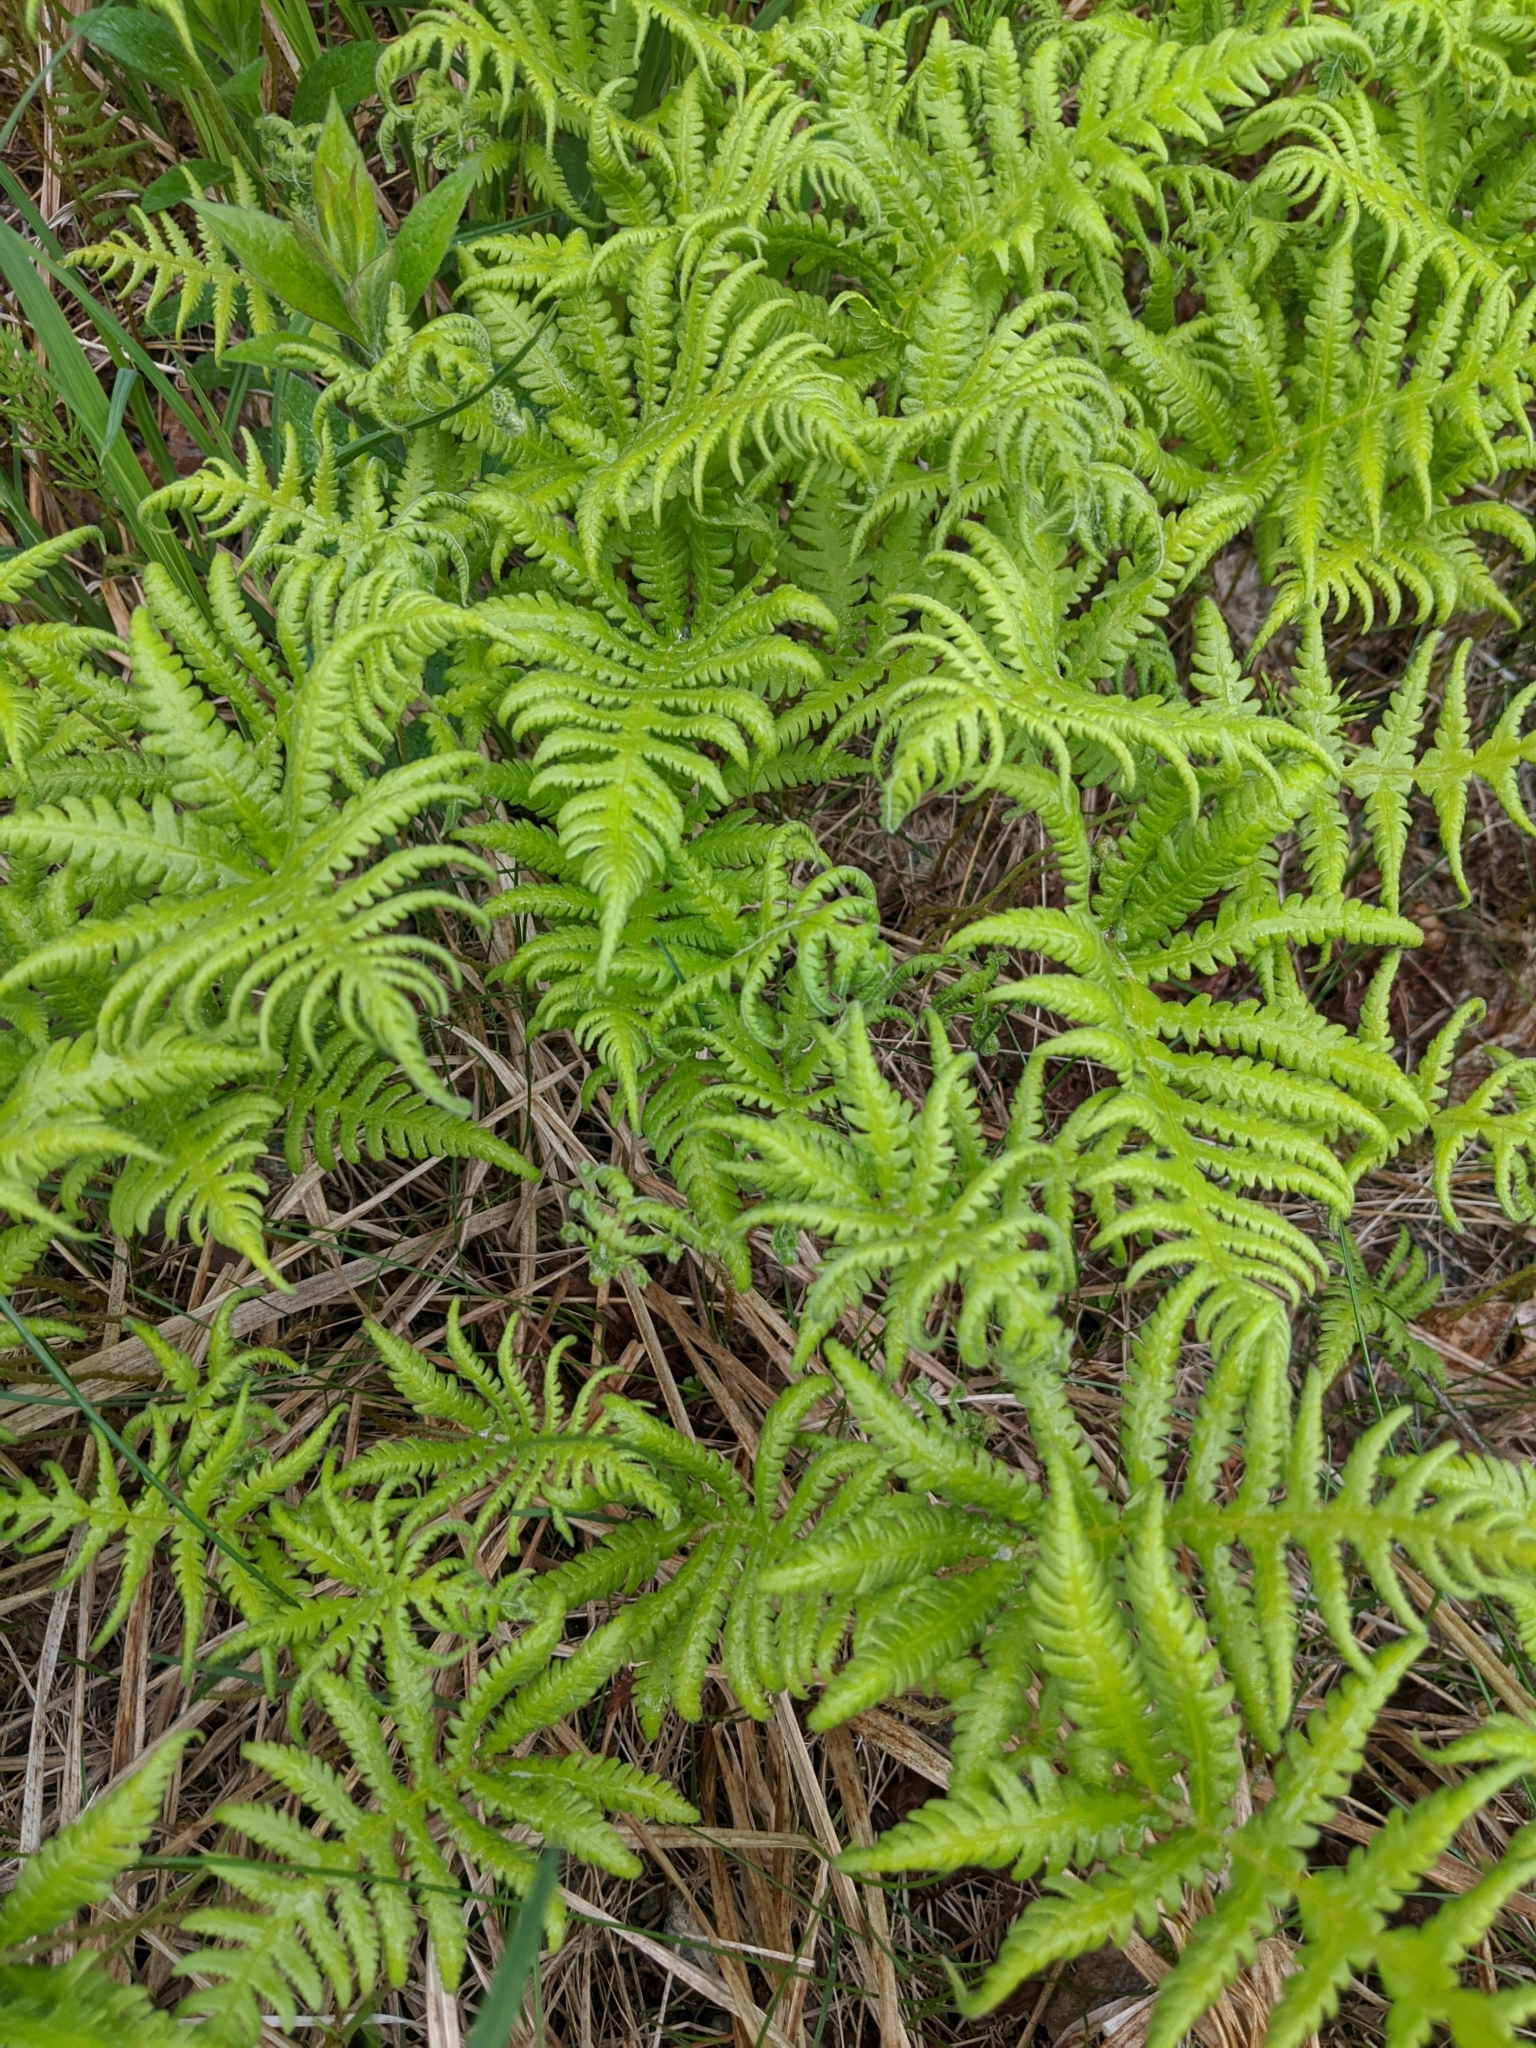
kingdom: Plantae
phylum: Tracheophyta
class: Polypodiopsida
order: Polypodiales
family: Thelypteridaceae
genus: Phegopteris
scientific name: Phegopteris connectilis
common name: Beech fern
